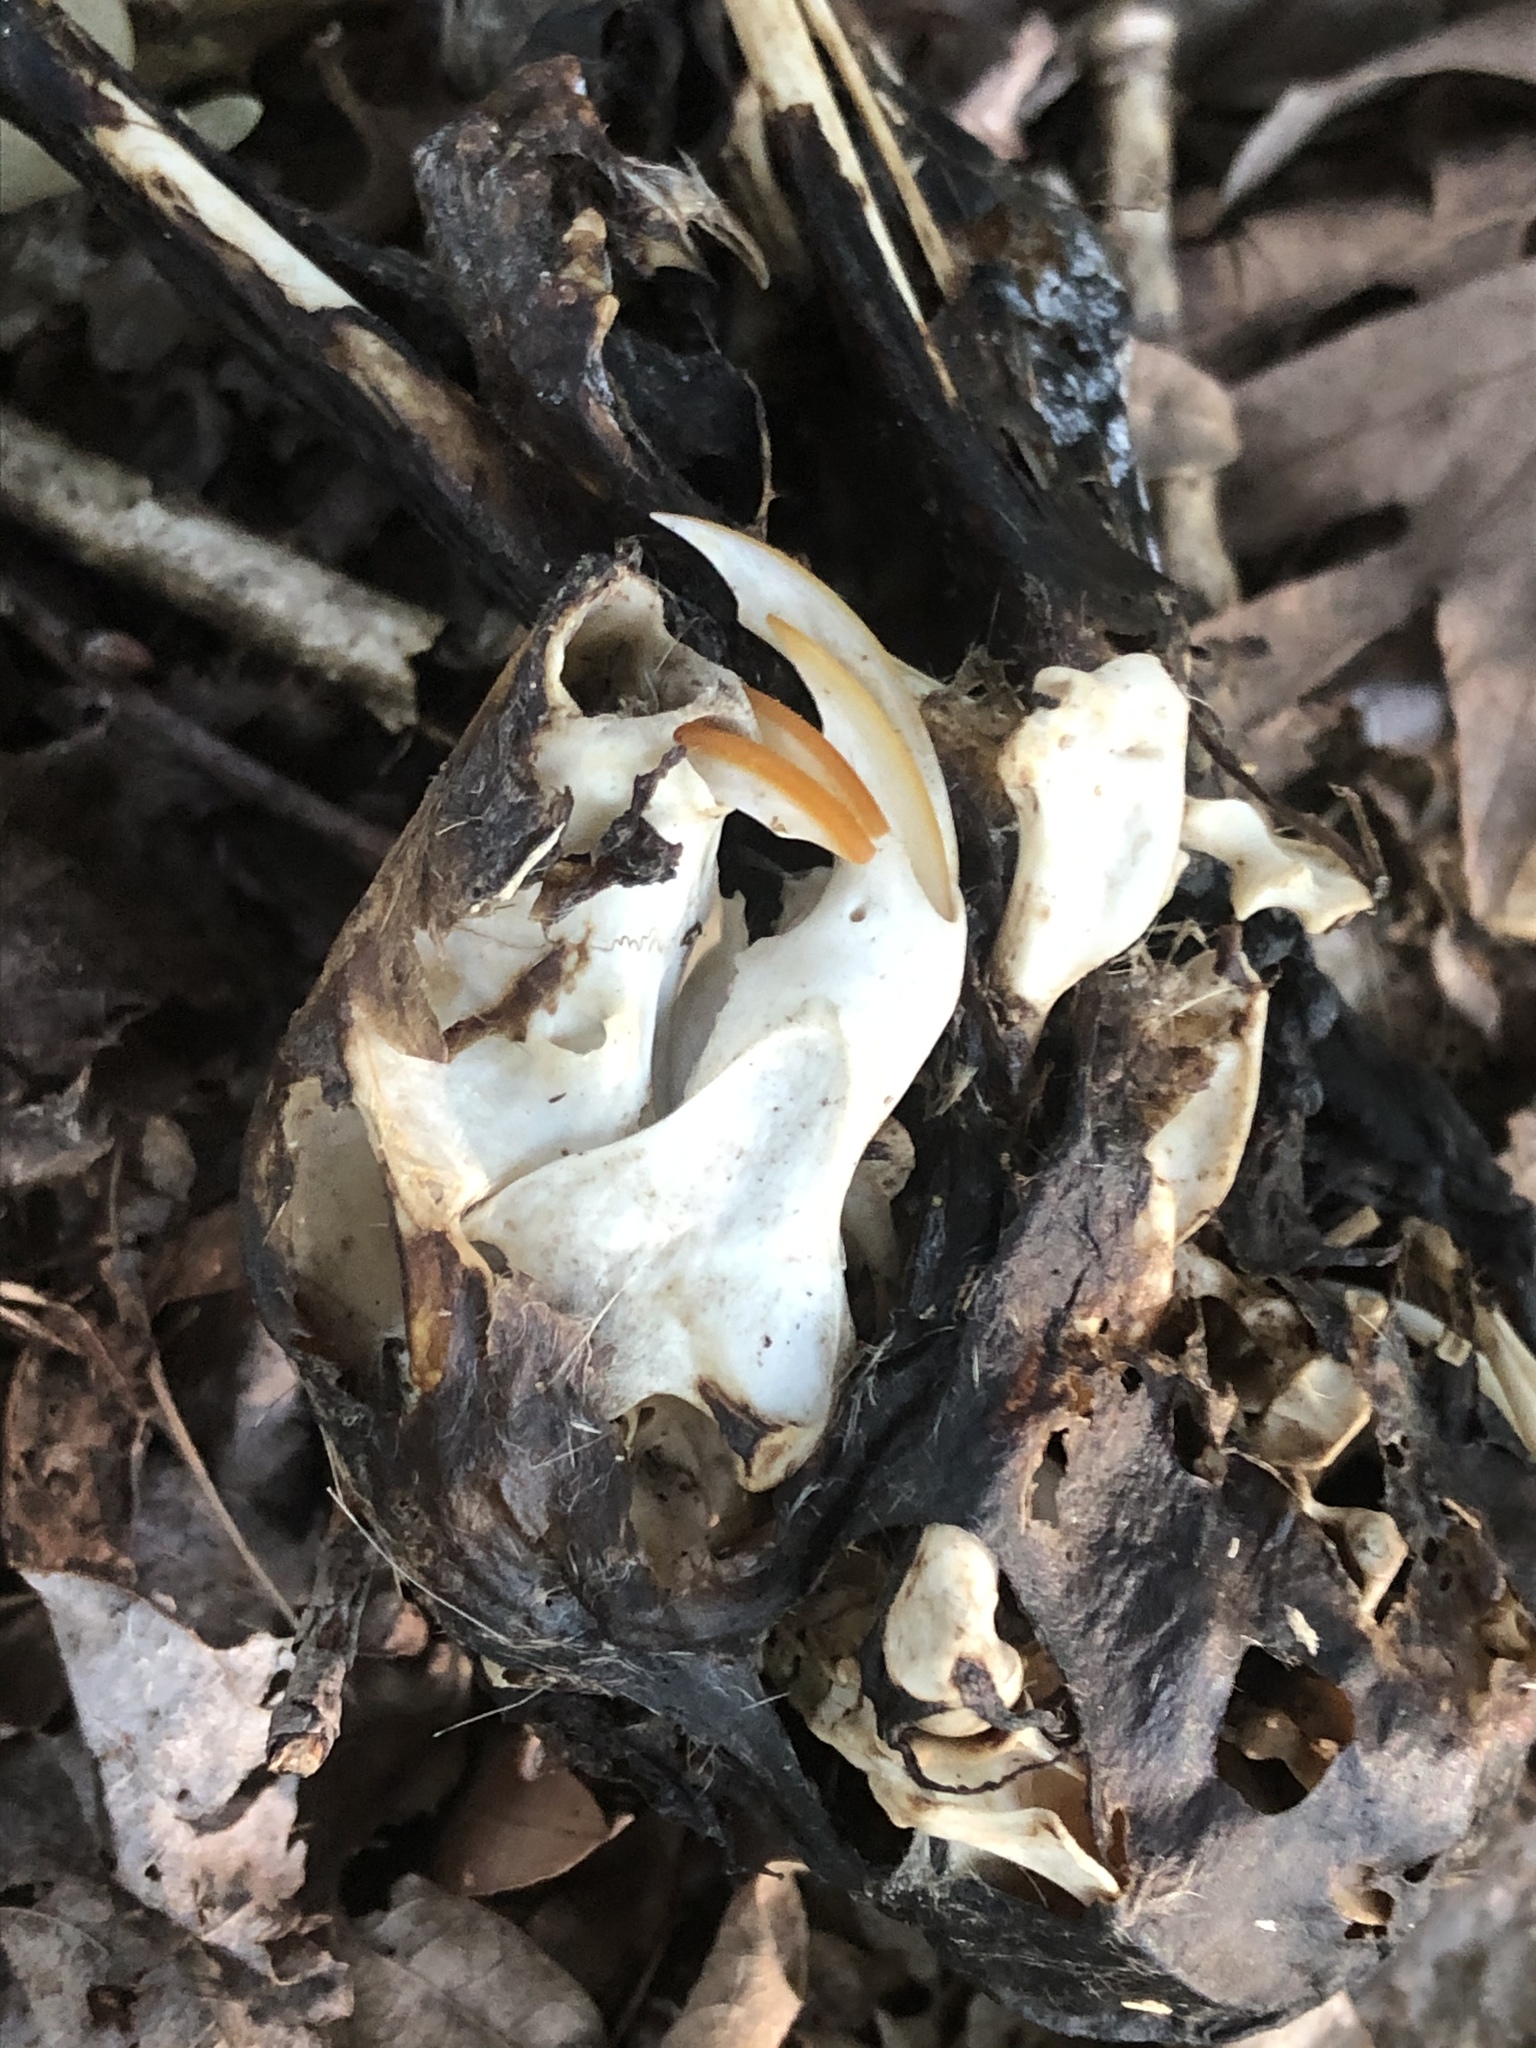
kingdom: Animalia
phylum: Chordata
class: Mammalia
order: Rodentia
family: Sciuridae
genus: Sciurus
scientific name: Sciurus carolinensis
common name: Eastern gray squirrel
